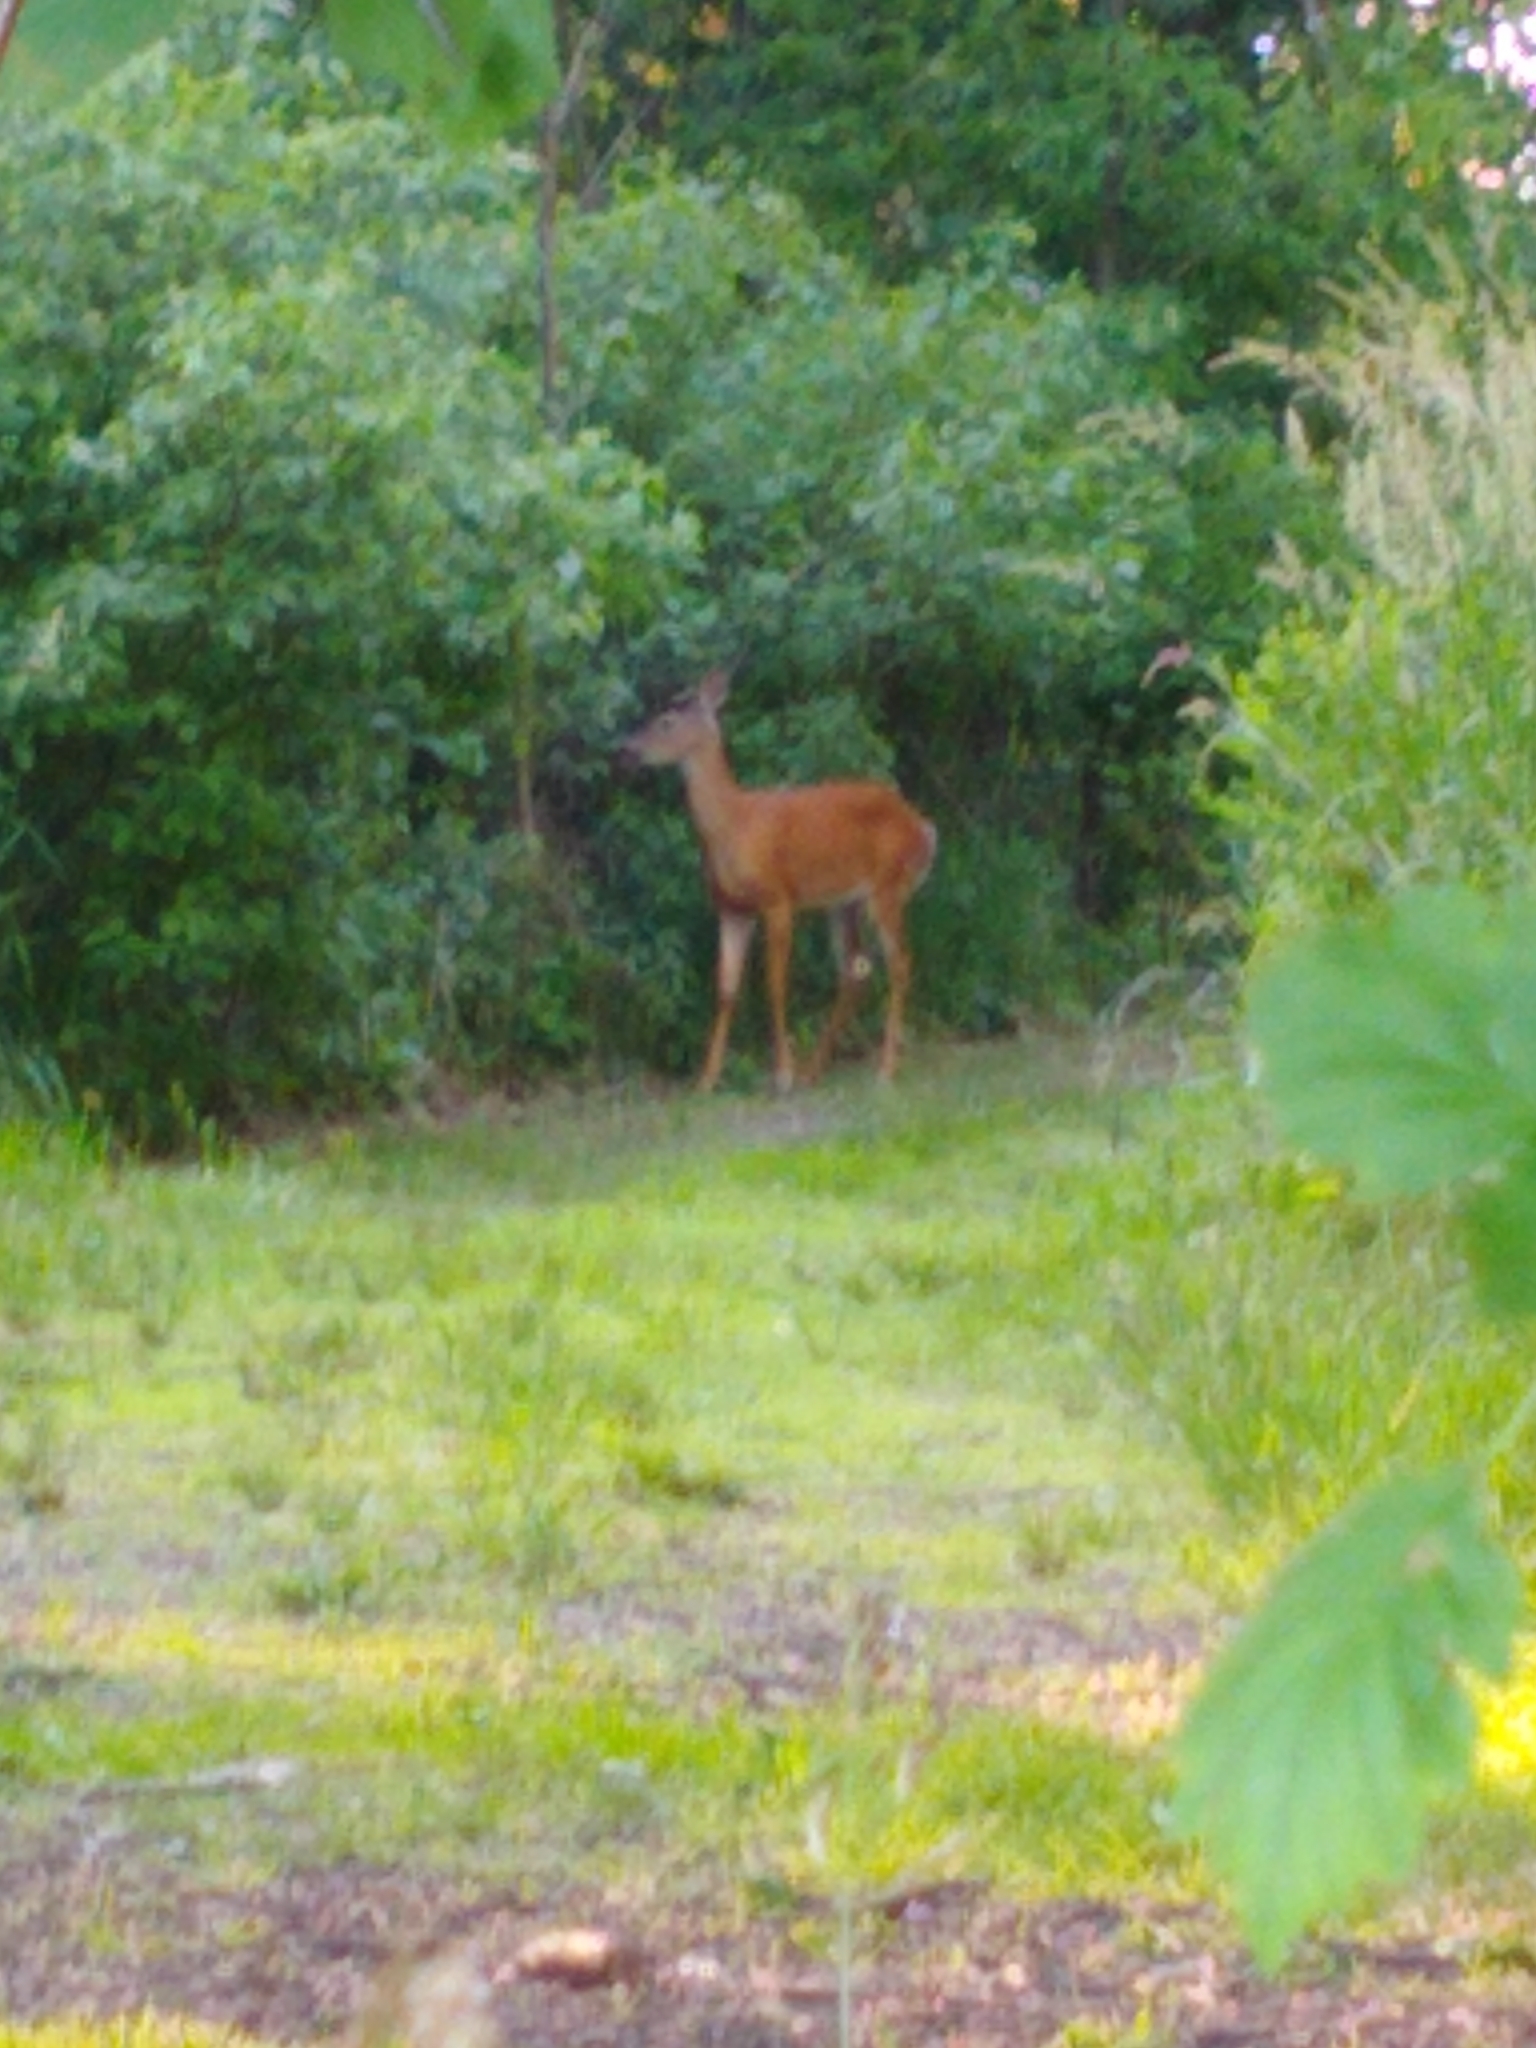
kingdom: Animalia
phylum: Chordata
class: Mammalia
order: Artiodactyla
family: Cervidae
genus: Odocoileus
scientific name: Odocoileus virginianus
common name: White-tailed deer
